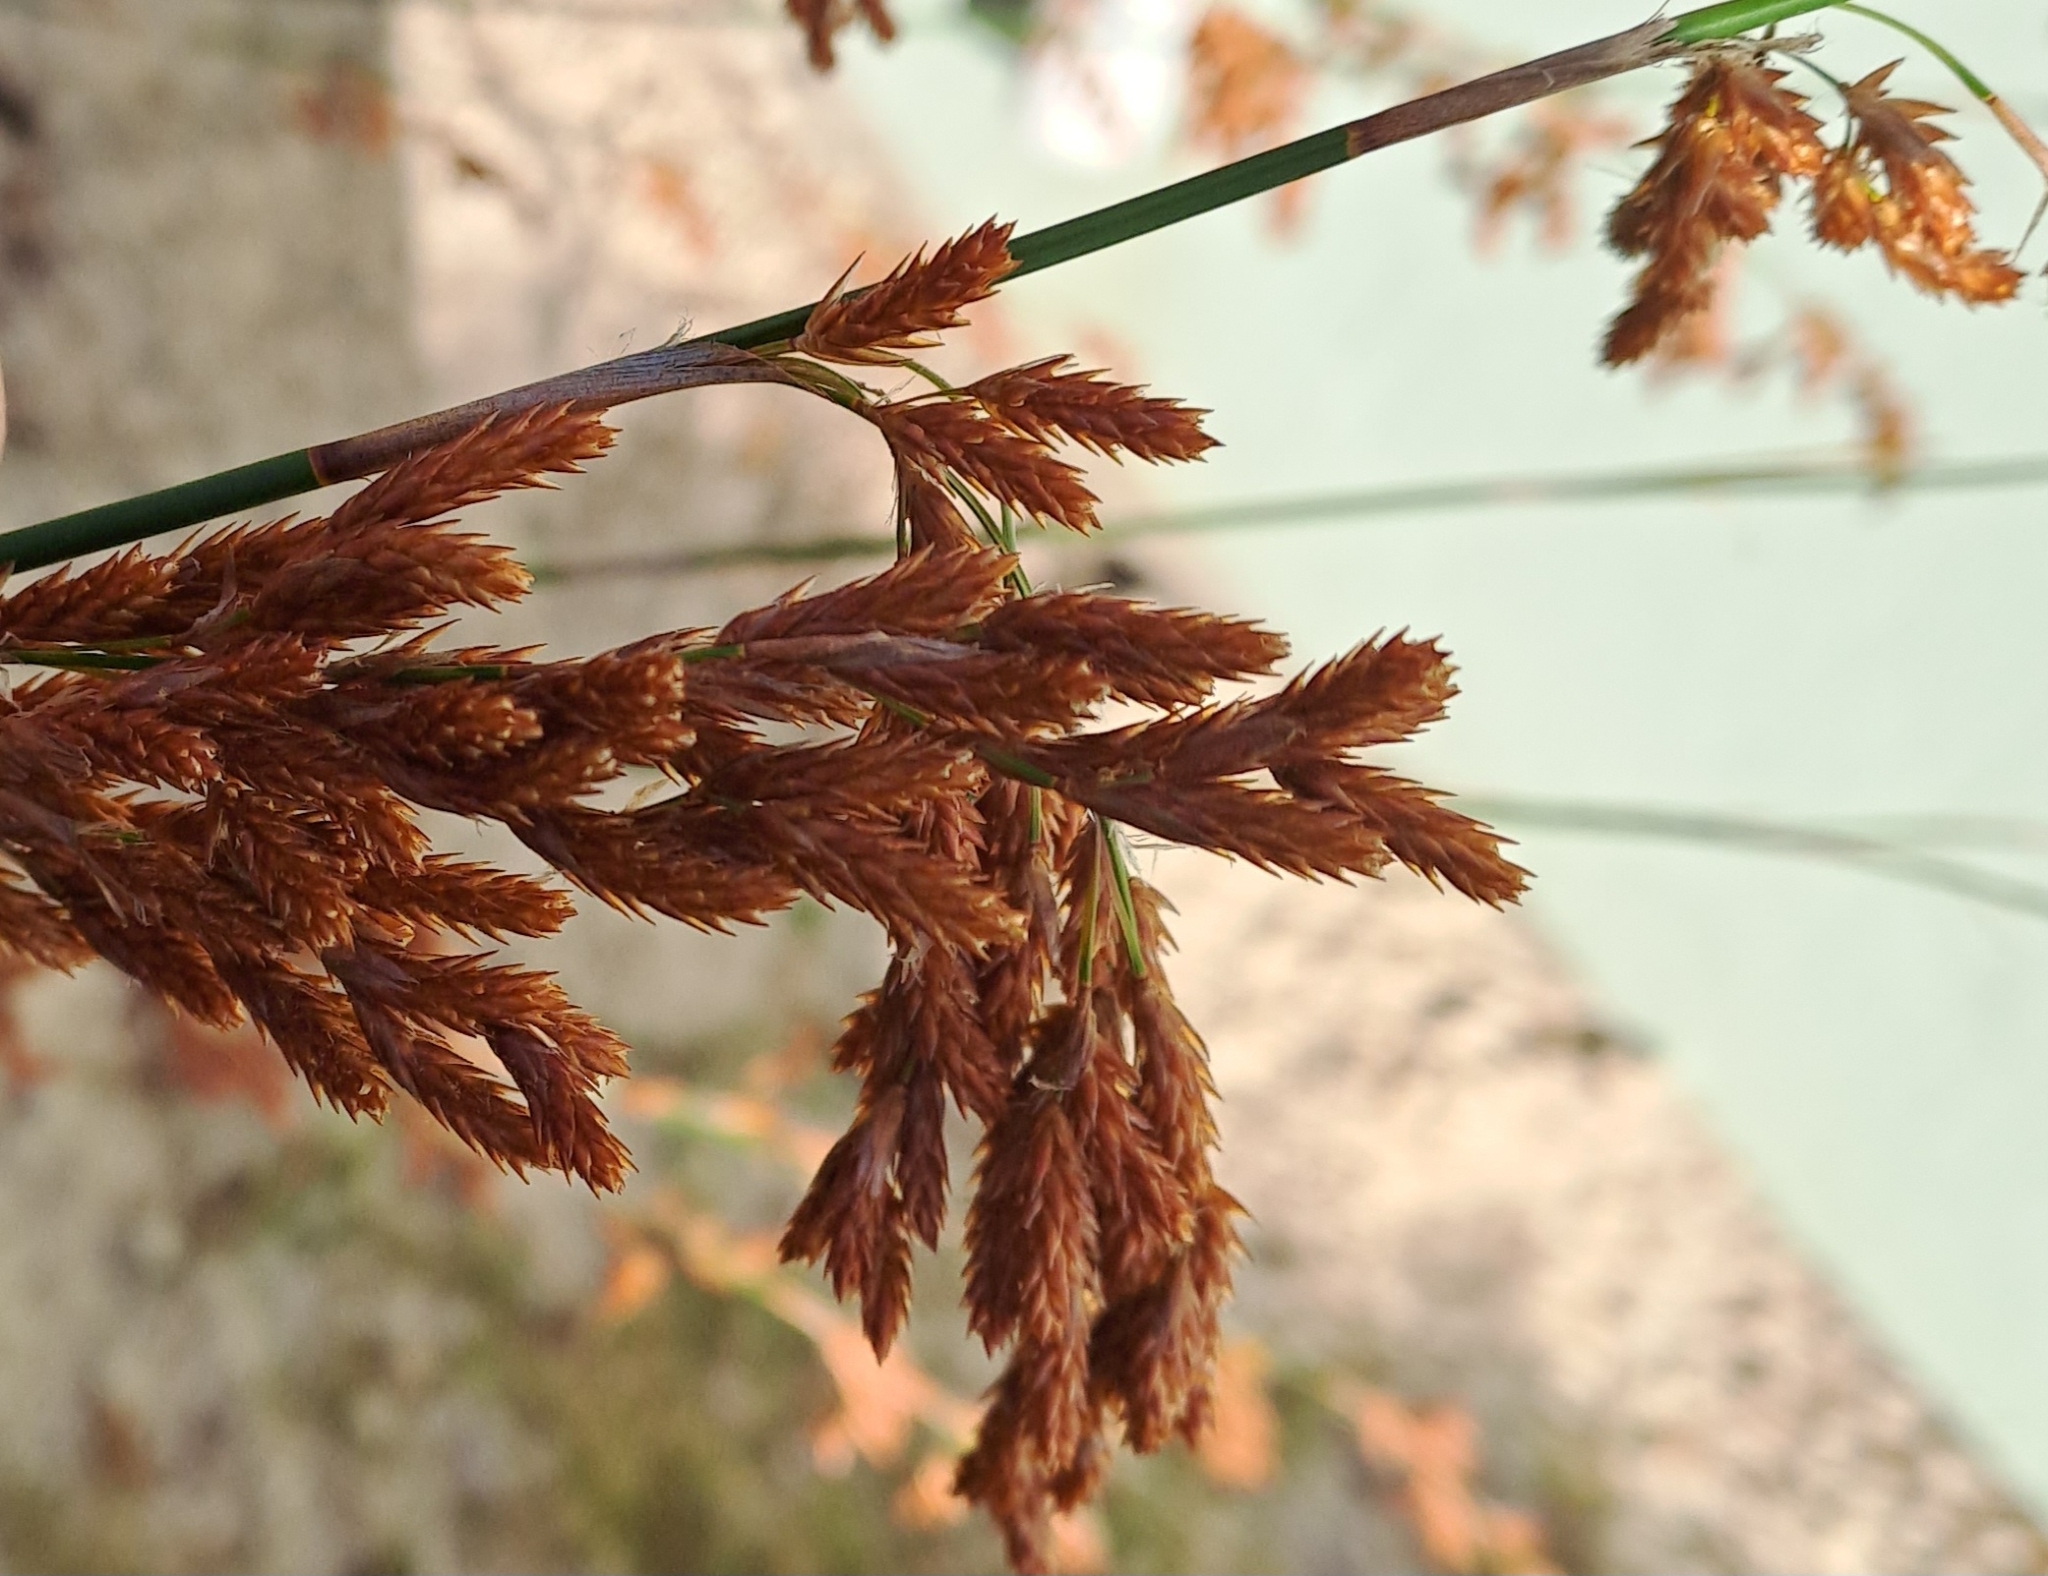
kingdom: Plantae
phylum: Tracheophyta
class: Liliopsida
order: Poales
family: Restionaceae
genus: Thamnochortus
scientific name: Thamnochortus insignis
